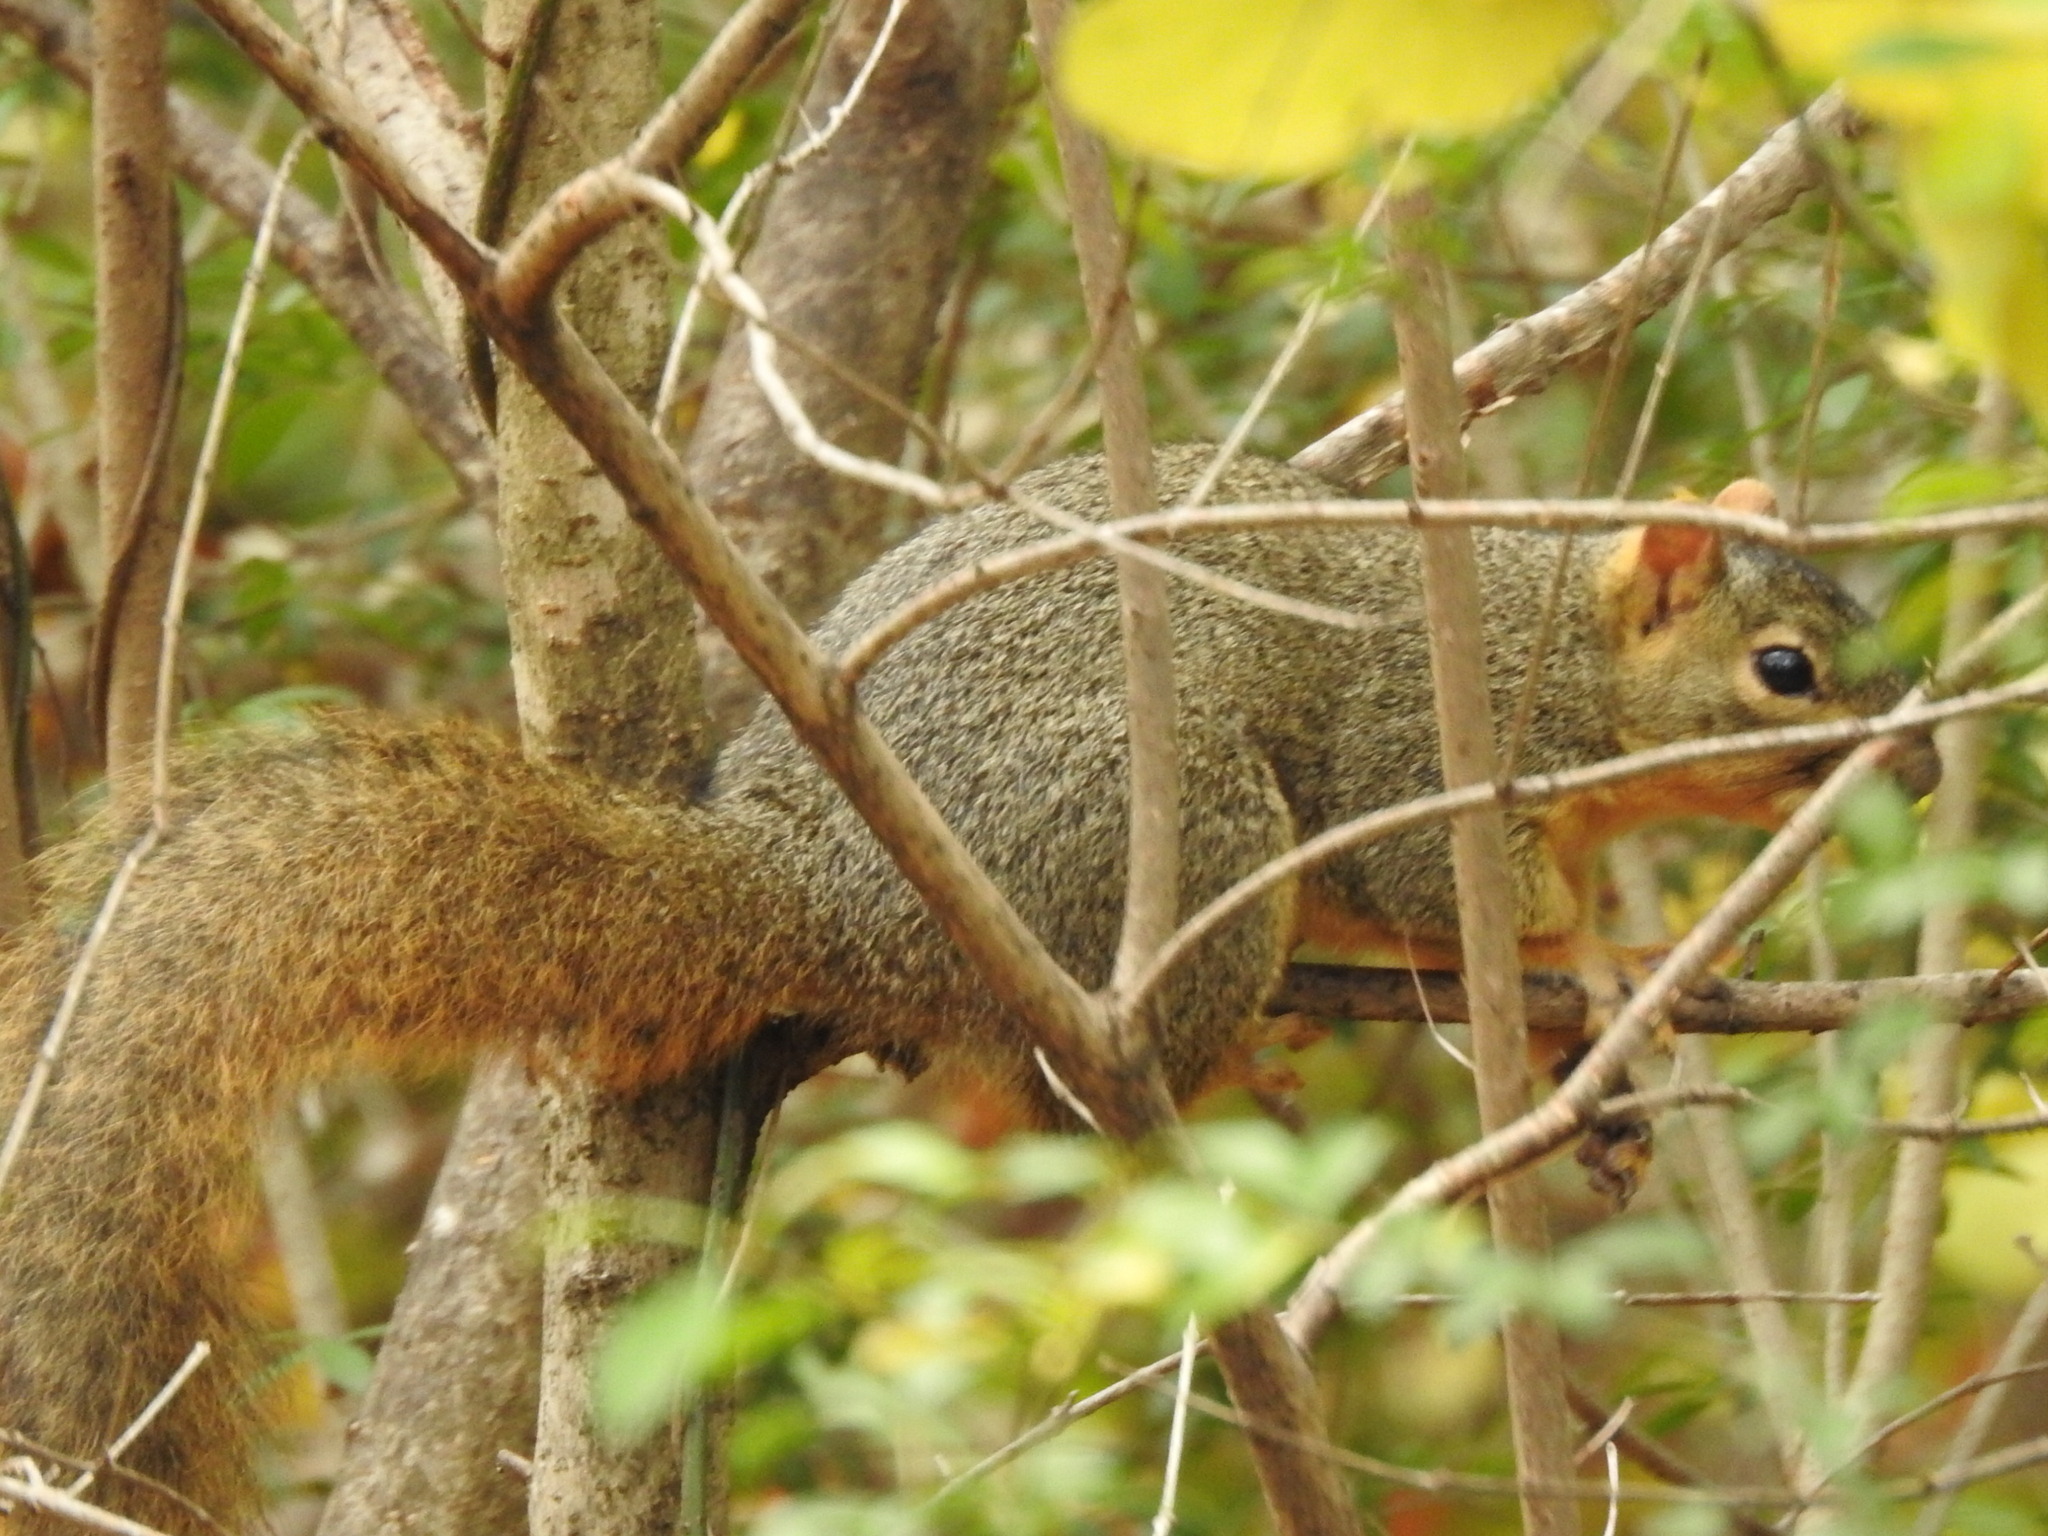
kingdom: Animalia
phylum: Chordata
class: Mammalia
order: Rodentia
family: Sciuridae
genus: Sciurus
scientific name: Sciurus niger
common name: Fox squirrel
